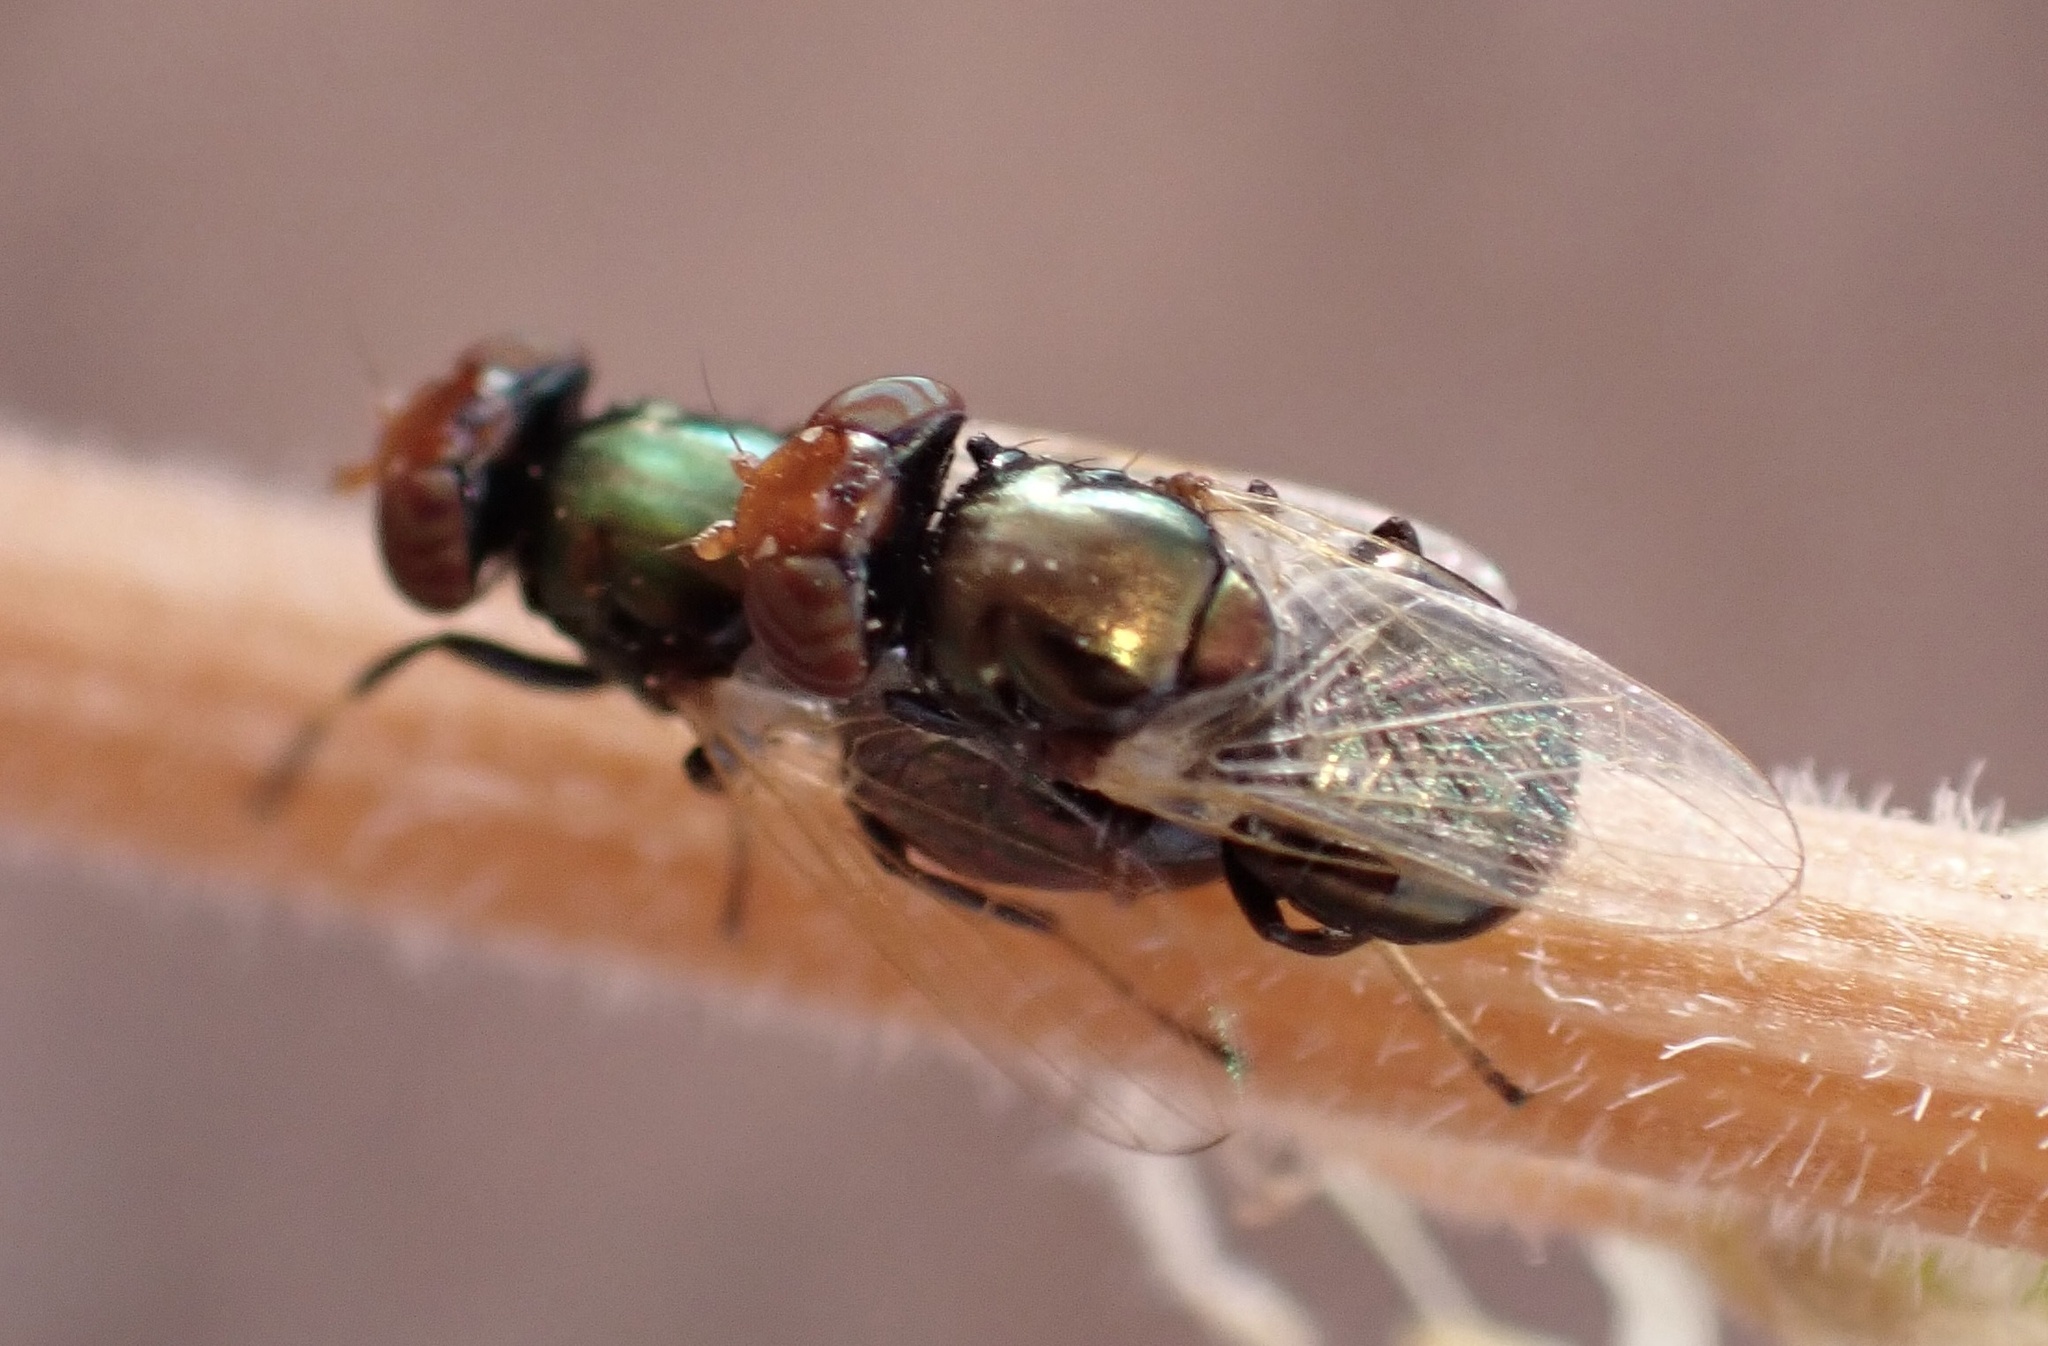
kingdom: Animalia
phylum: Arthropoda
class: Insecta
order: Diptera
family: Ulidiidae
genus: Physiphora
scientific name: Physiphora alceae
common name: Picture-winged fly
